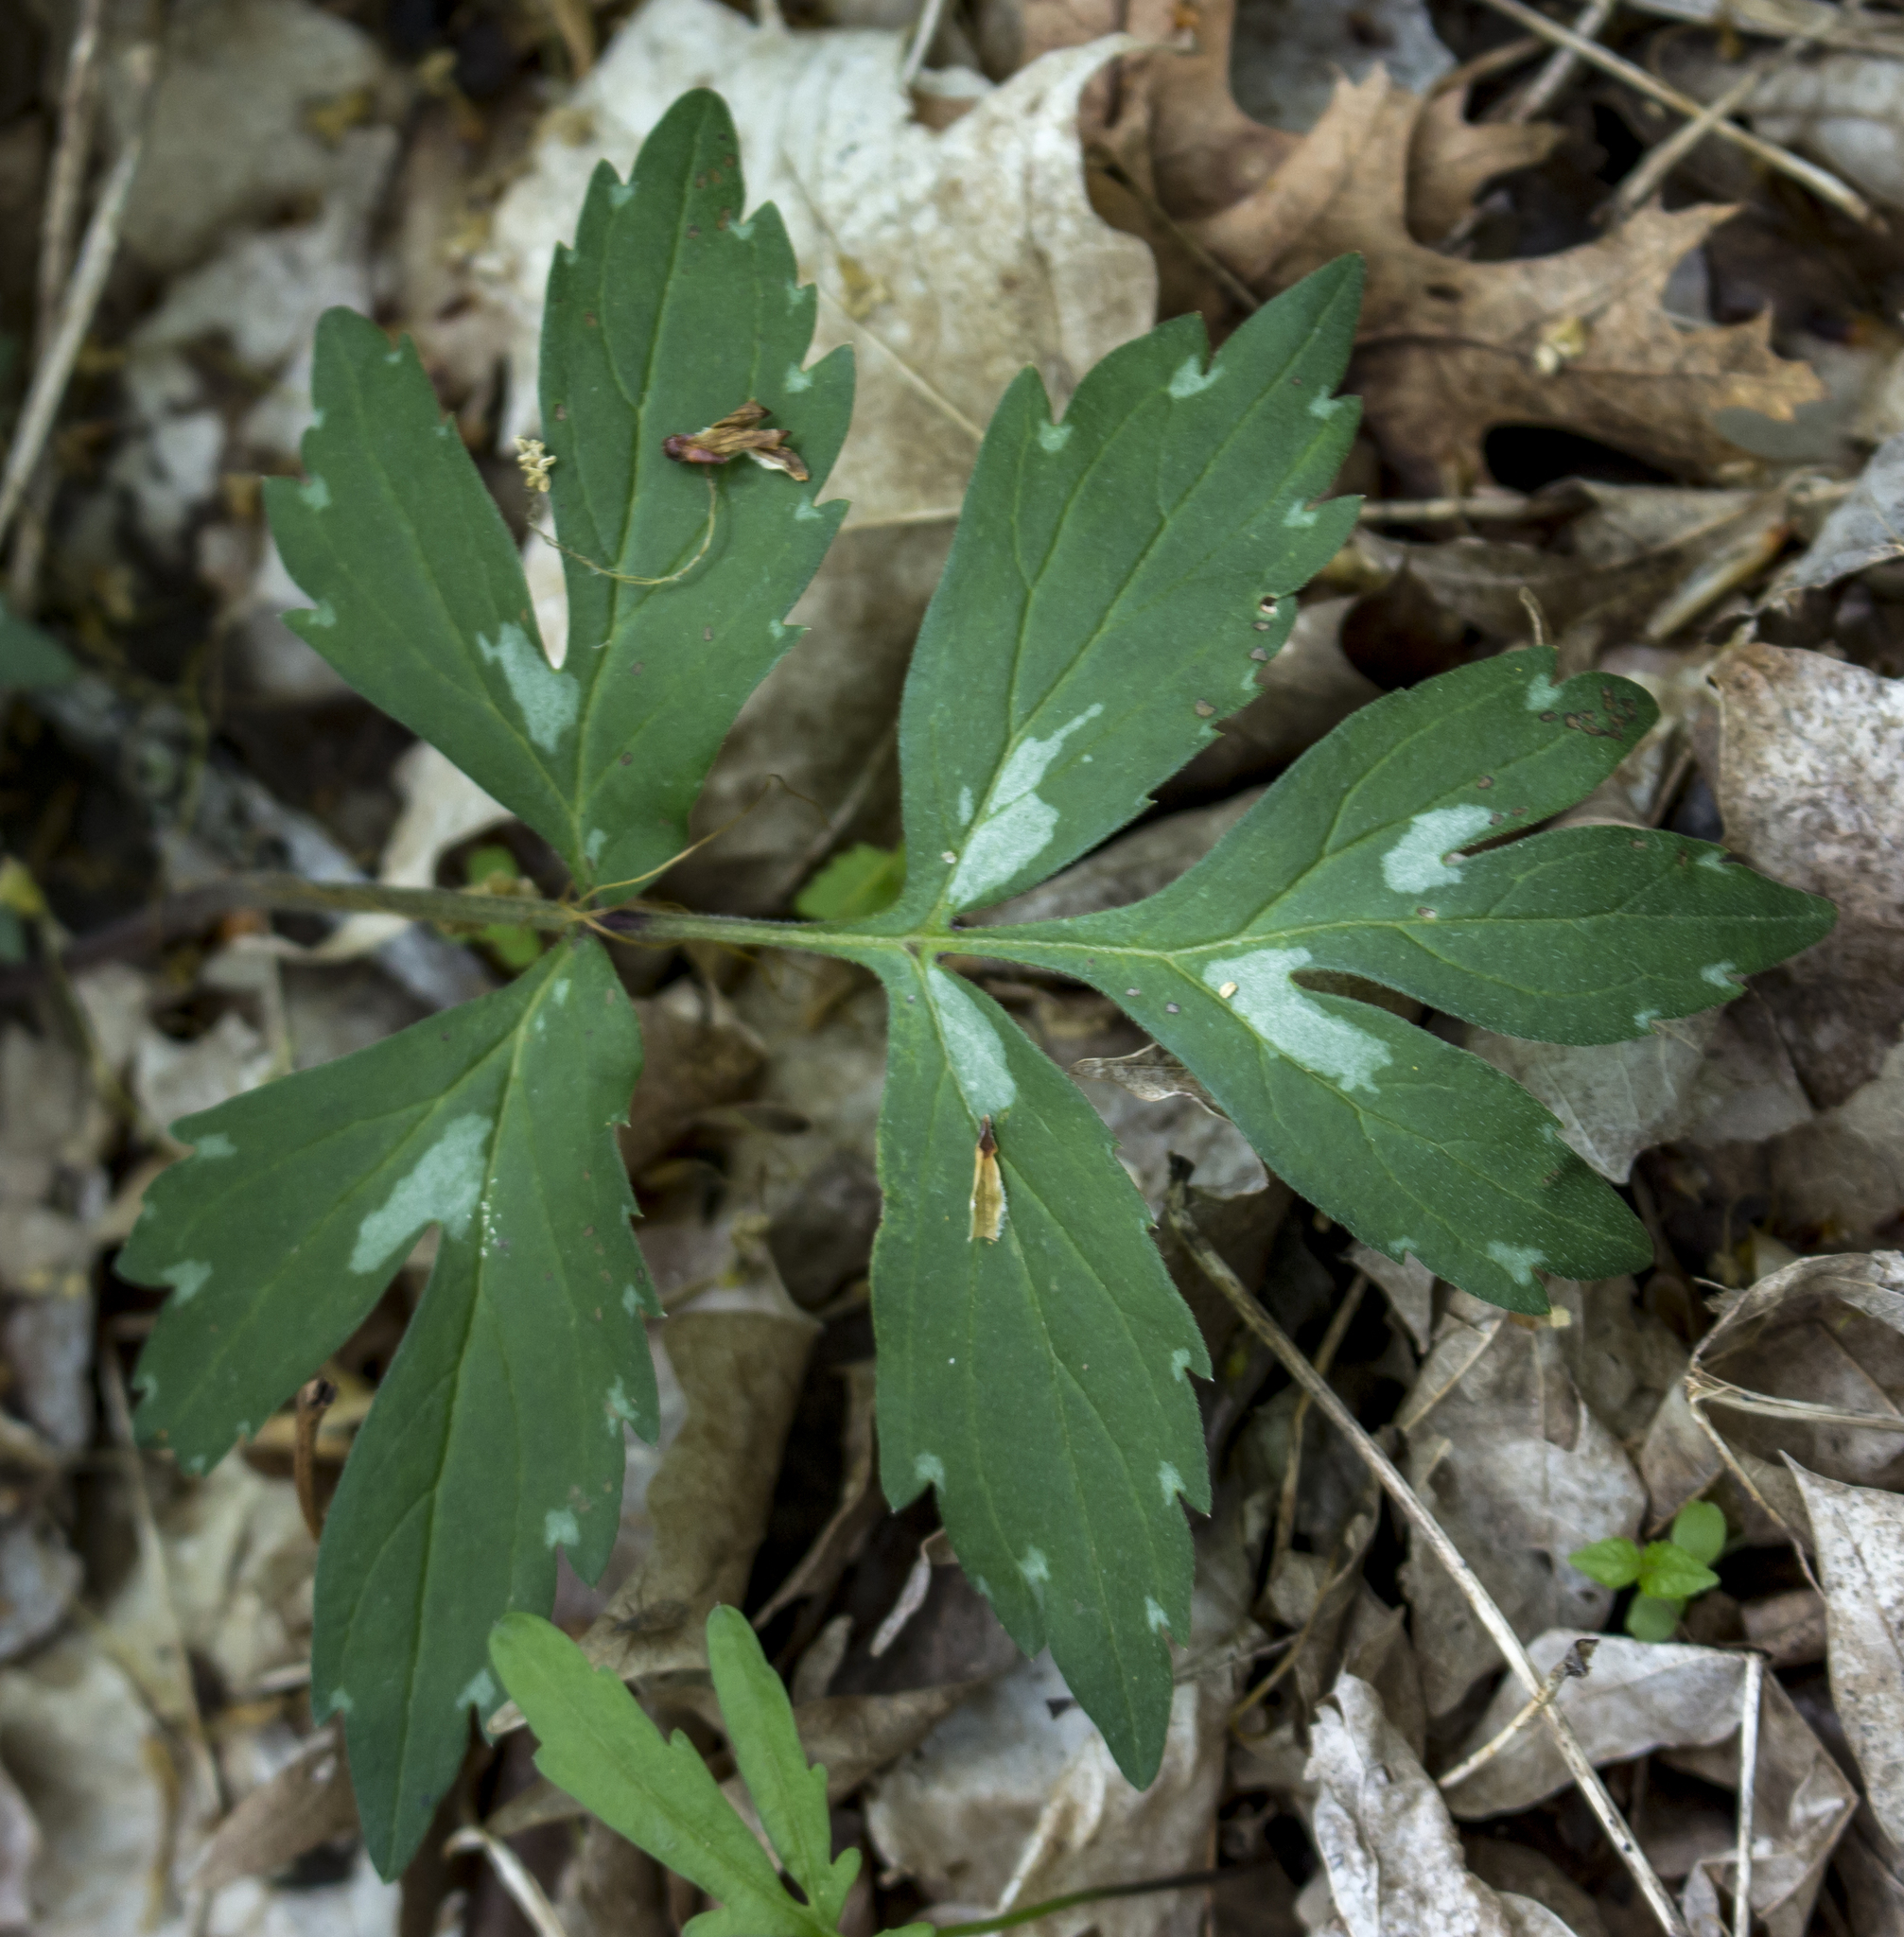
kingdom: Plantae
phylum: Tracheophyta
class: Magnoliopsida
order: Boraginales
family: Hydrophyllaceae
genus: Hydrophyllum
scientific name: Hydrophyllum virginianum
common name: Virginia waterleaf
